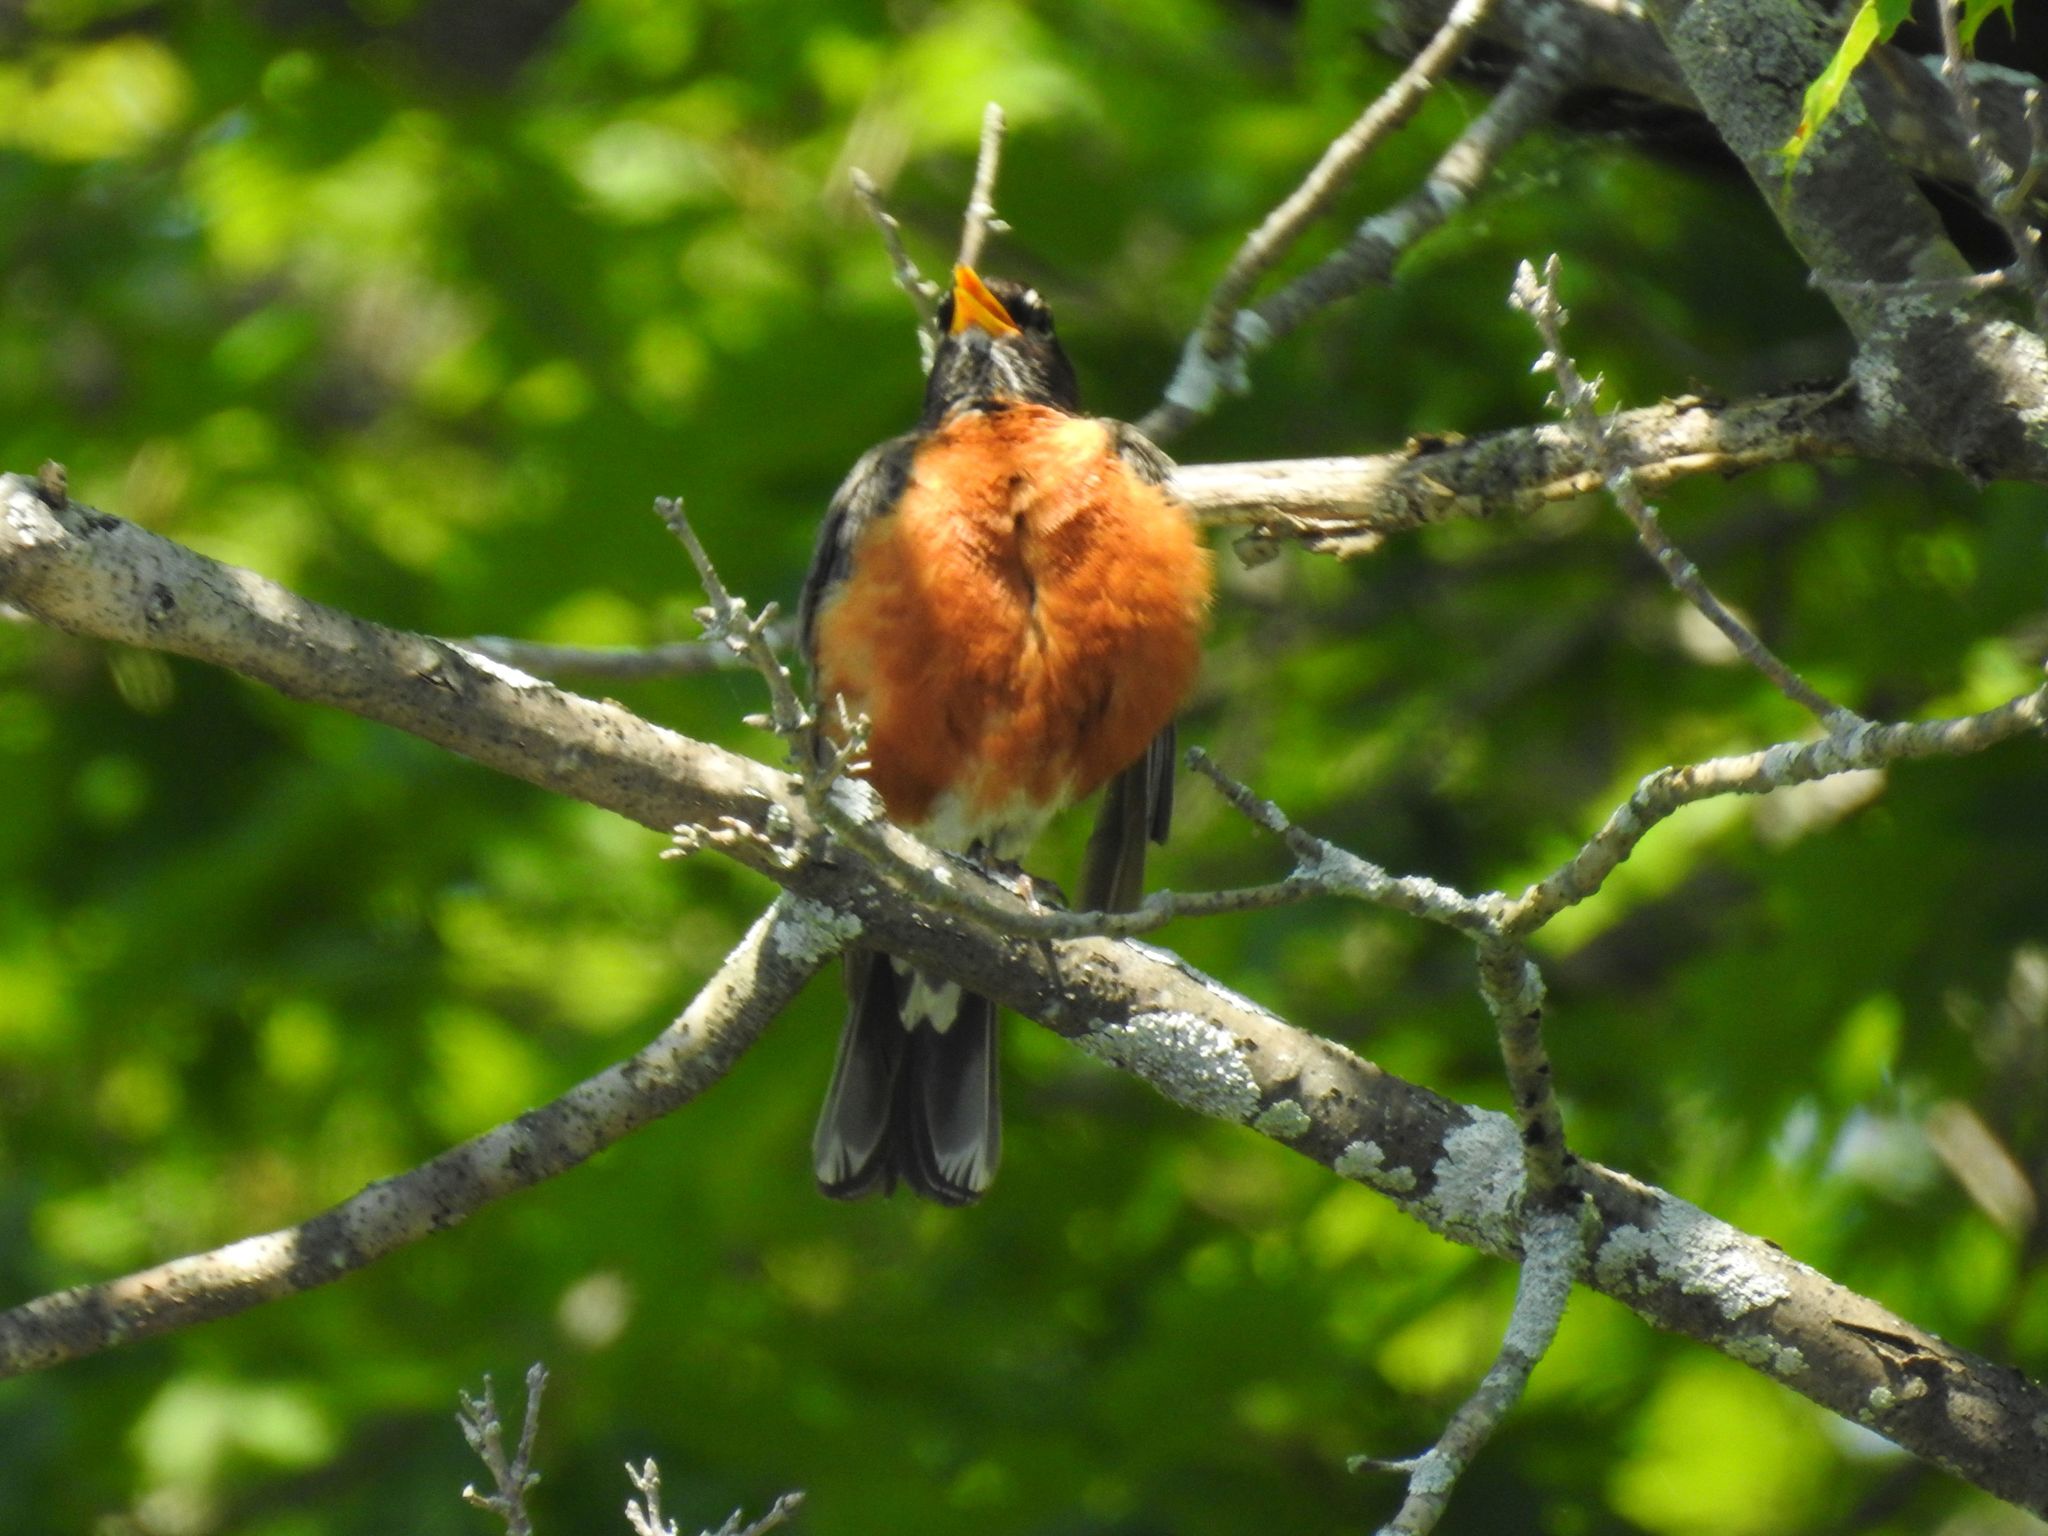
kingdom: Animalia
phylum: Chordata
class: Aves
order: Passeriformes
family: Turdidae
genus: Turdus
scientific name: Turdus migratorius
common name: American robin
